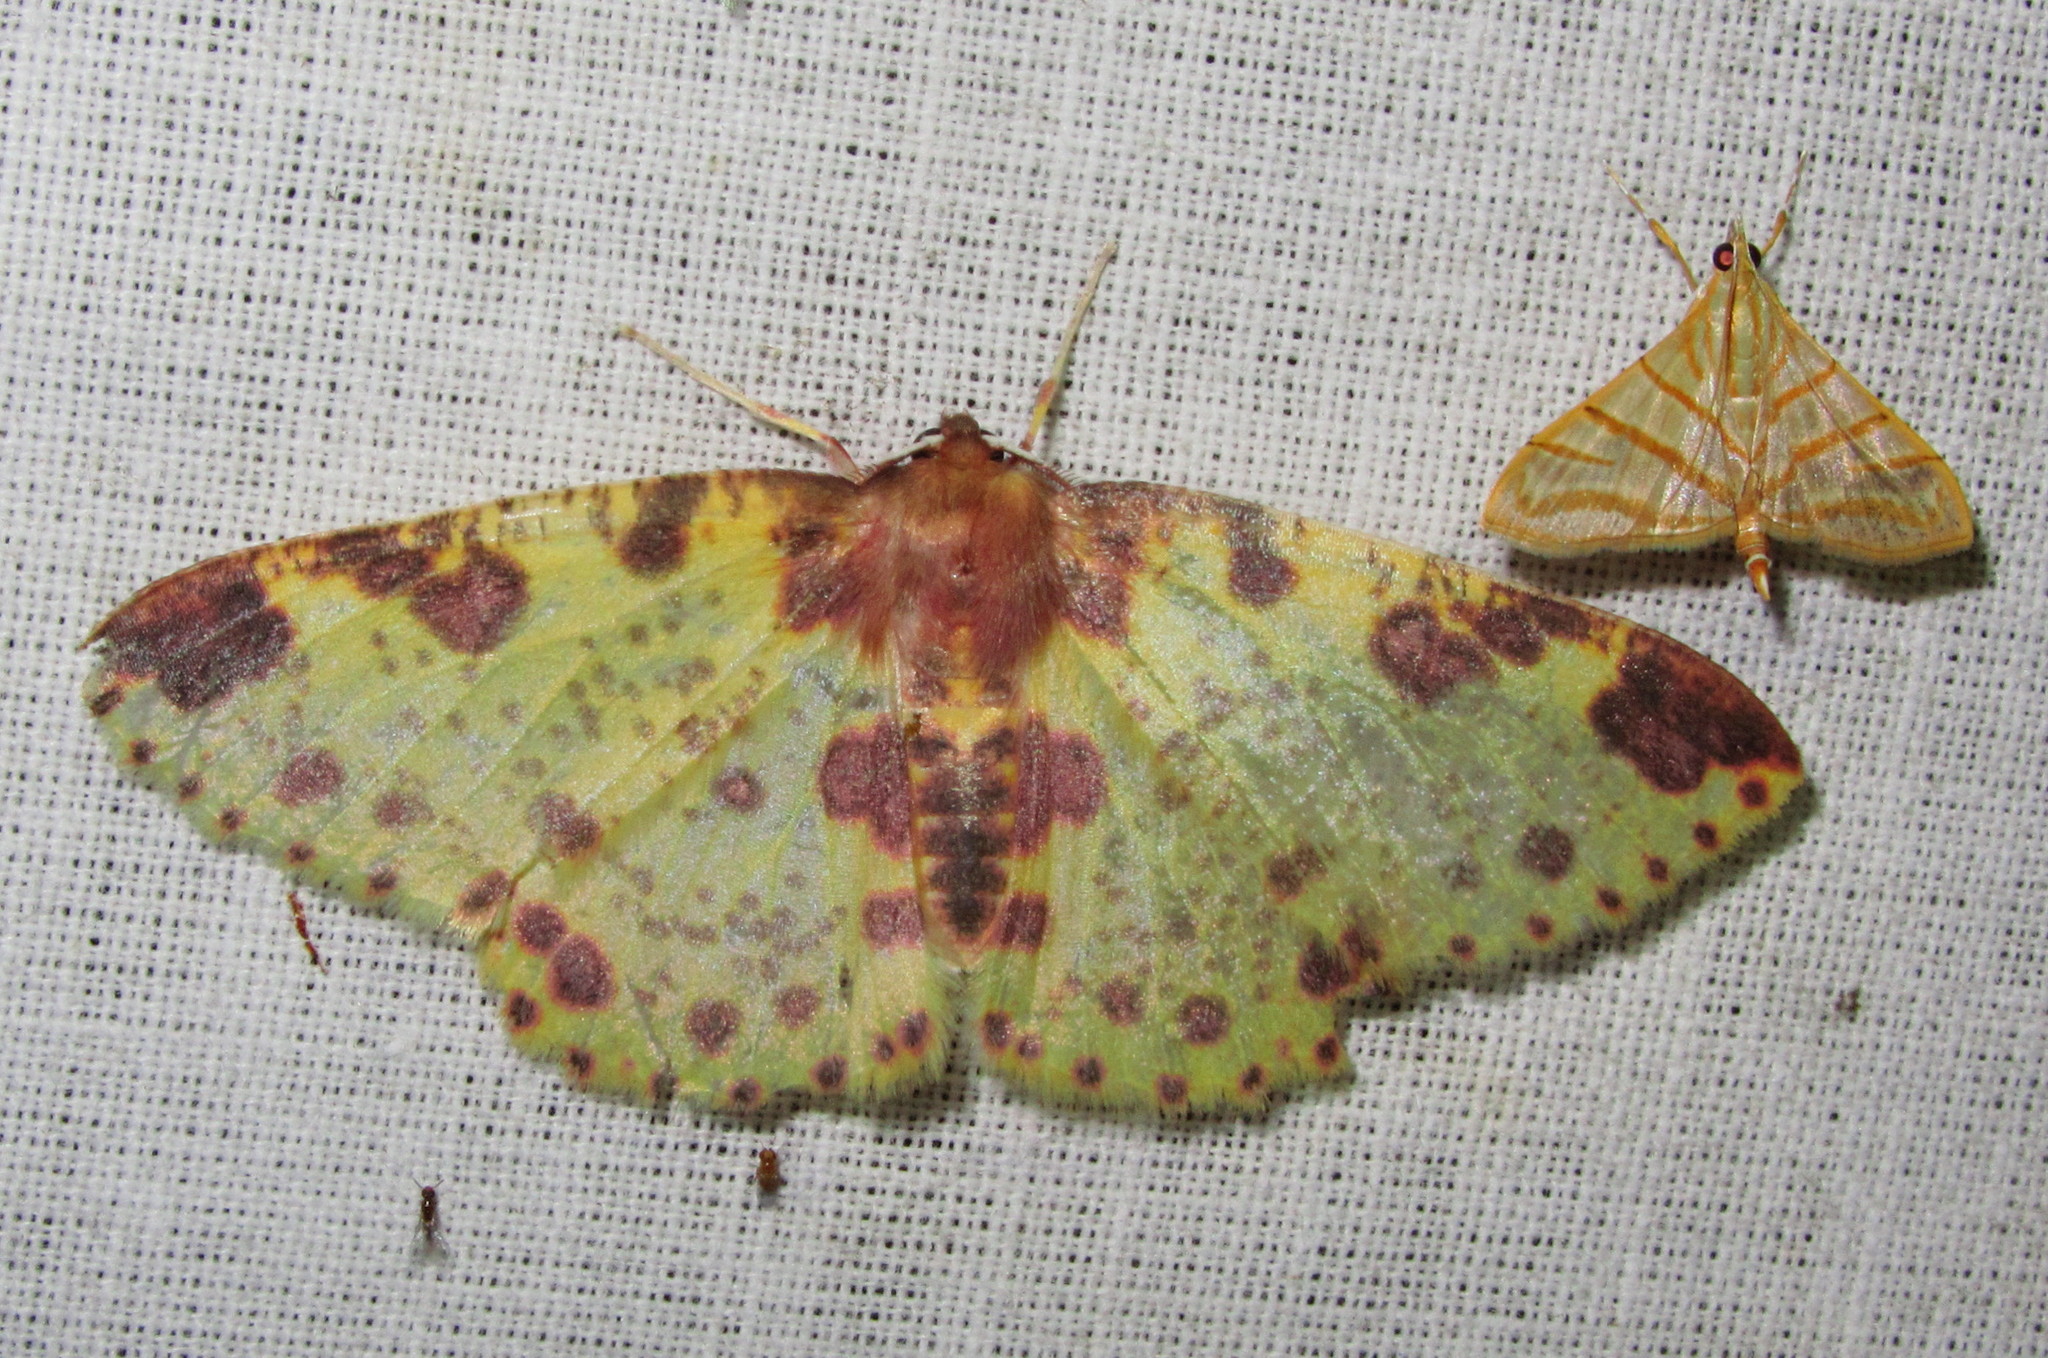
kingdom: Animalia
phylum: Arthropoda
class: Insecta
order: Lepidoptera
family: Geometridae
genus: Peetula
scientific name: Peetula exanthemata
